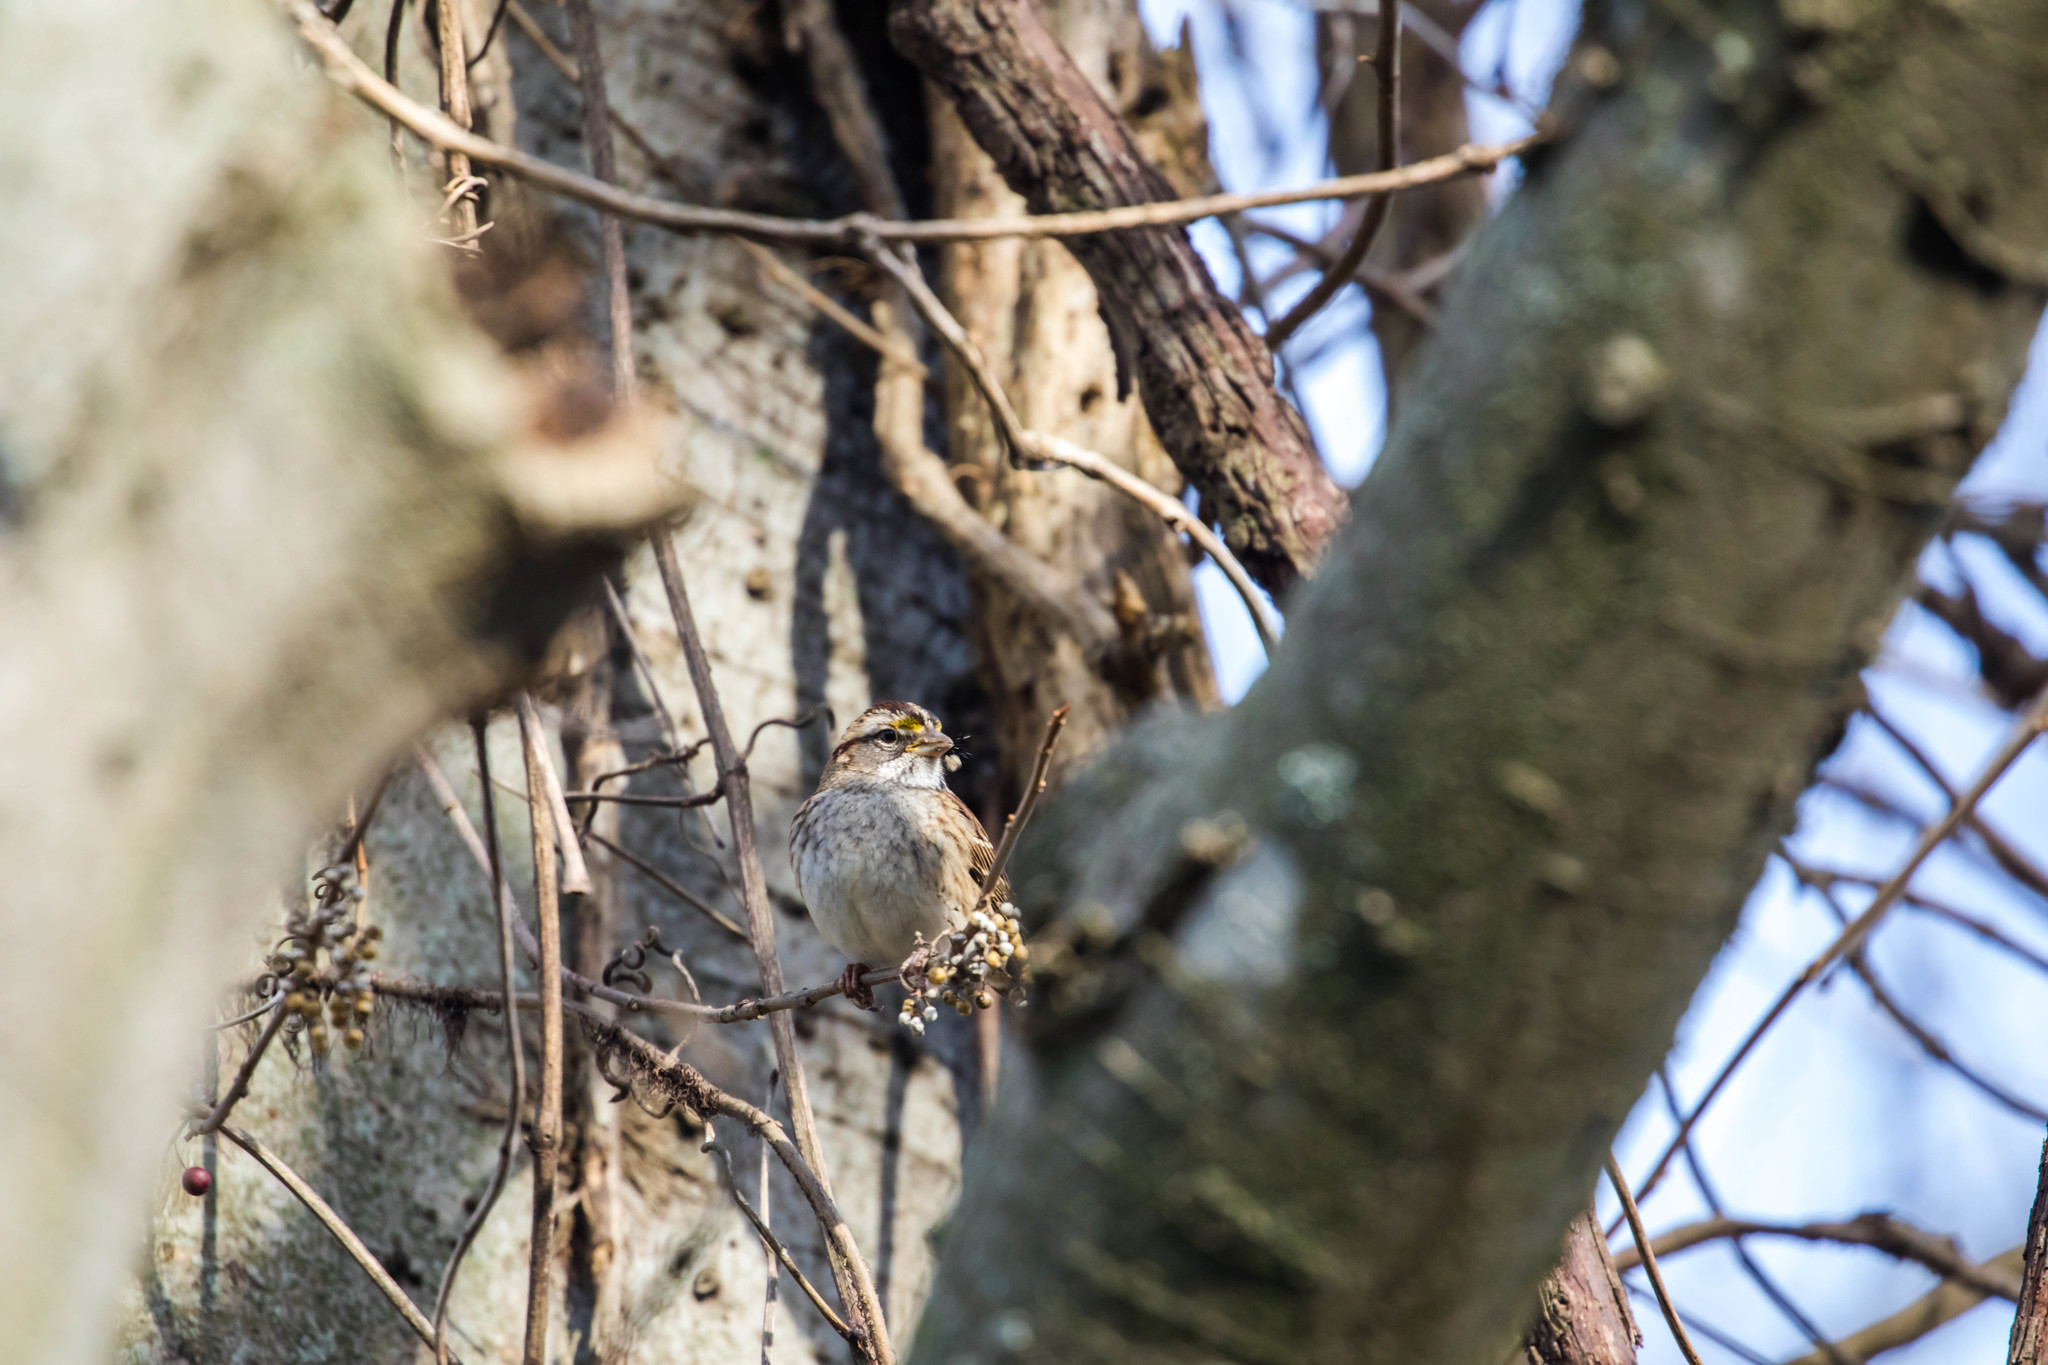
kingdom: Animalia
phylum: Chordata
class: Aves
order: Passeriformes
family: Passerellidae
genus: Zonotrichia
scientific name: Zonotrichia albicollis
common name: White-throated sparrow
